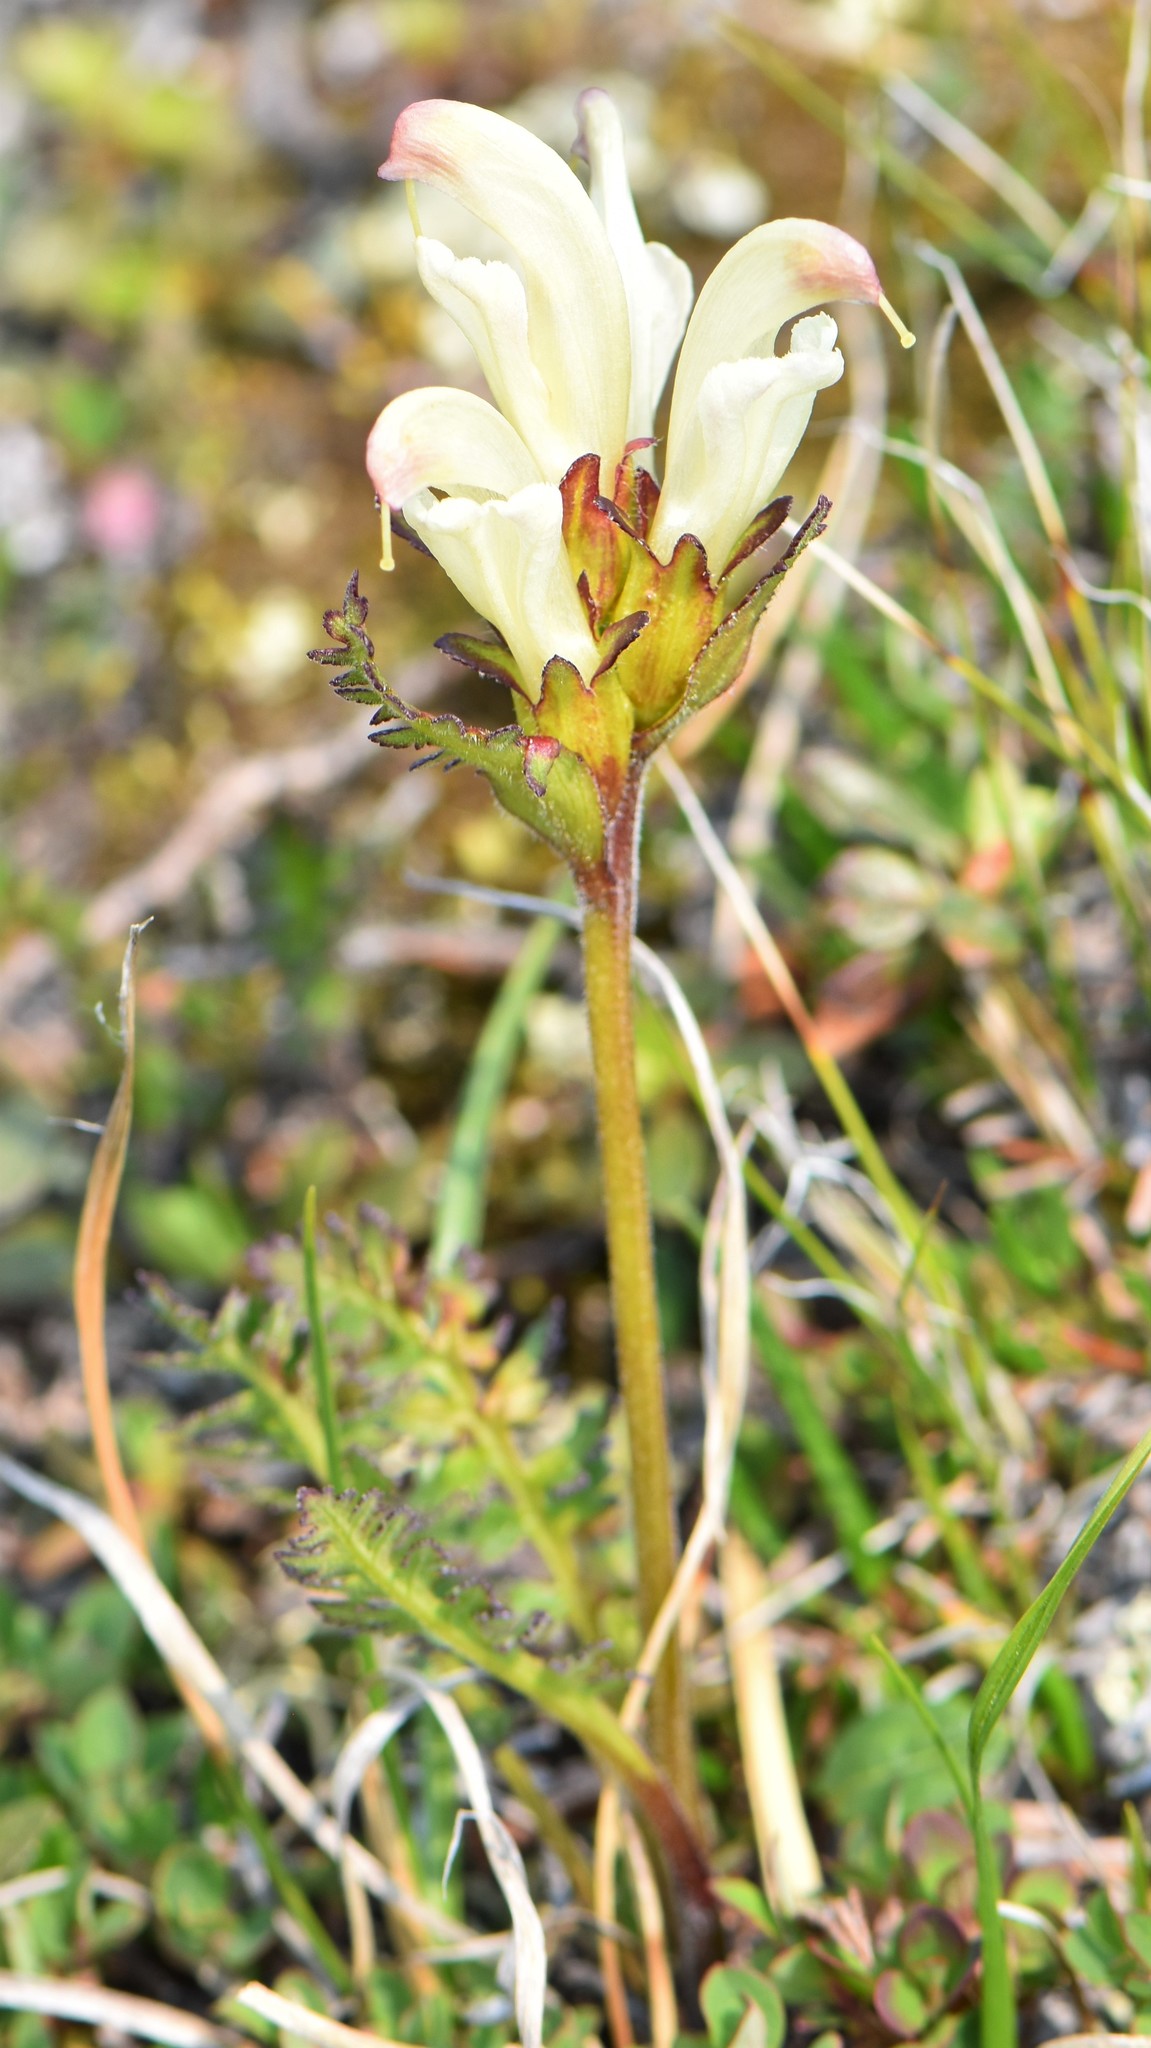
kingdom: Plantae
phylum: Tracheophyta
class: Magnoliopsida
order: Lamiales
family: Orobanchaceae
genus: Pedicularis
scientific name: Pedicularis capitata
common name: Capitate lousewort
